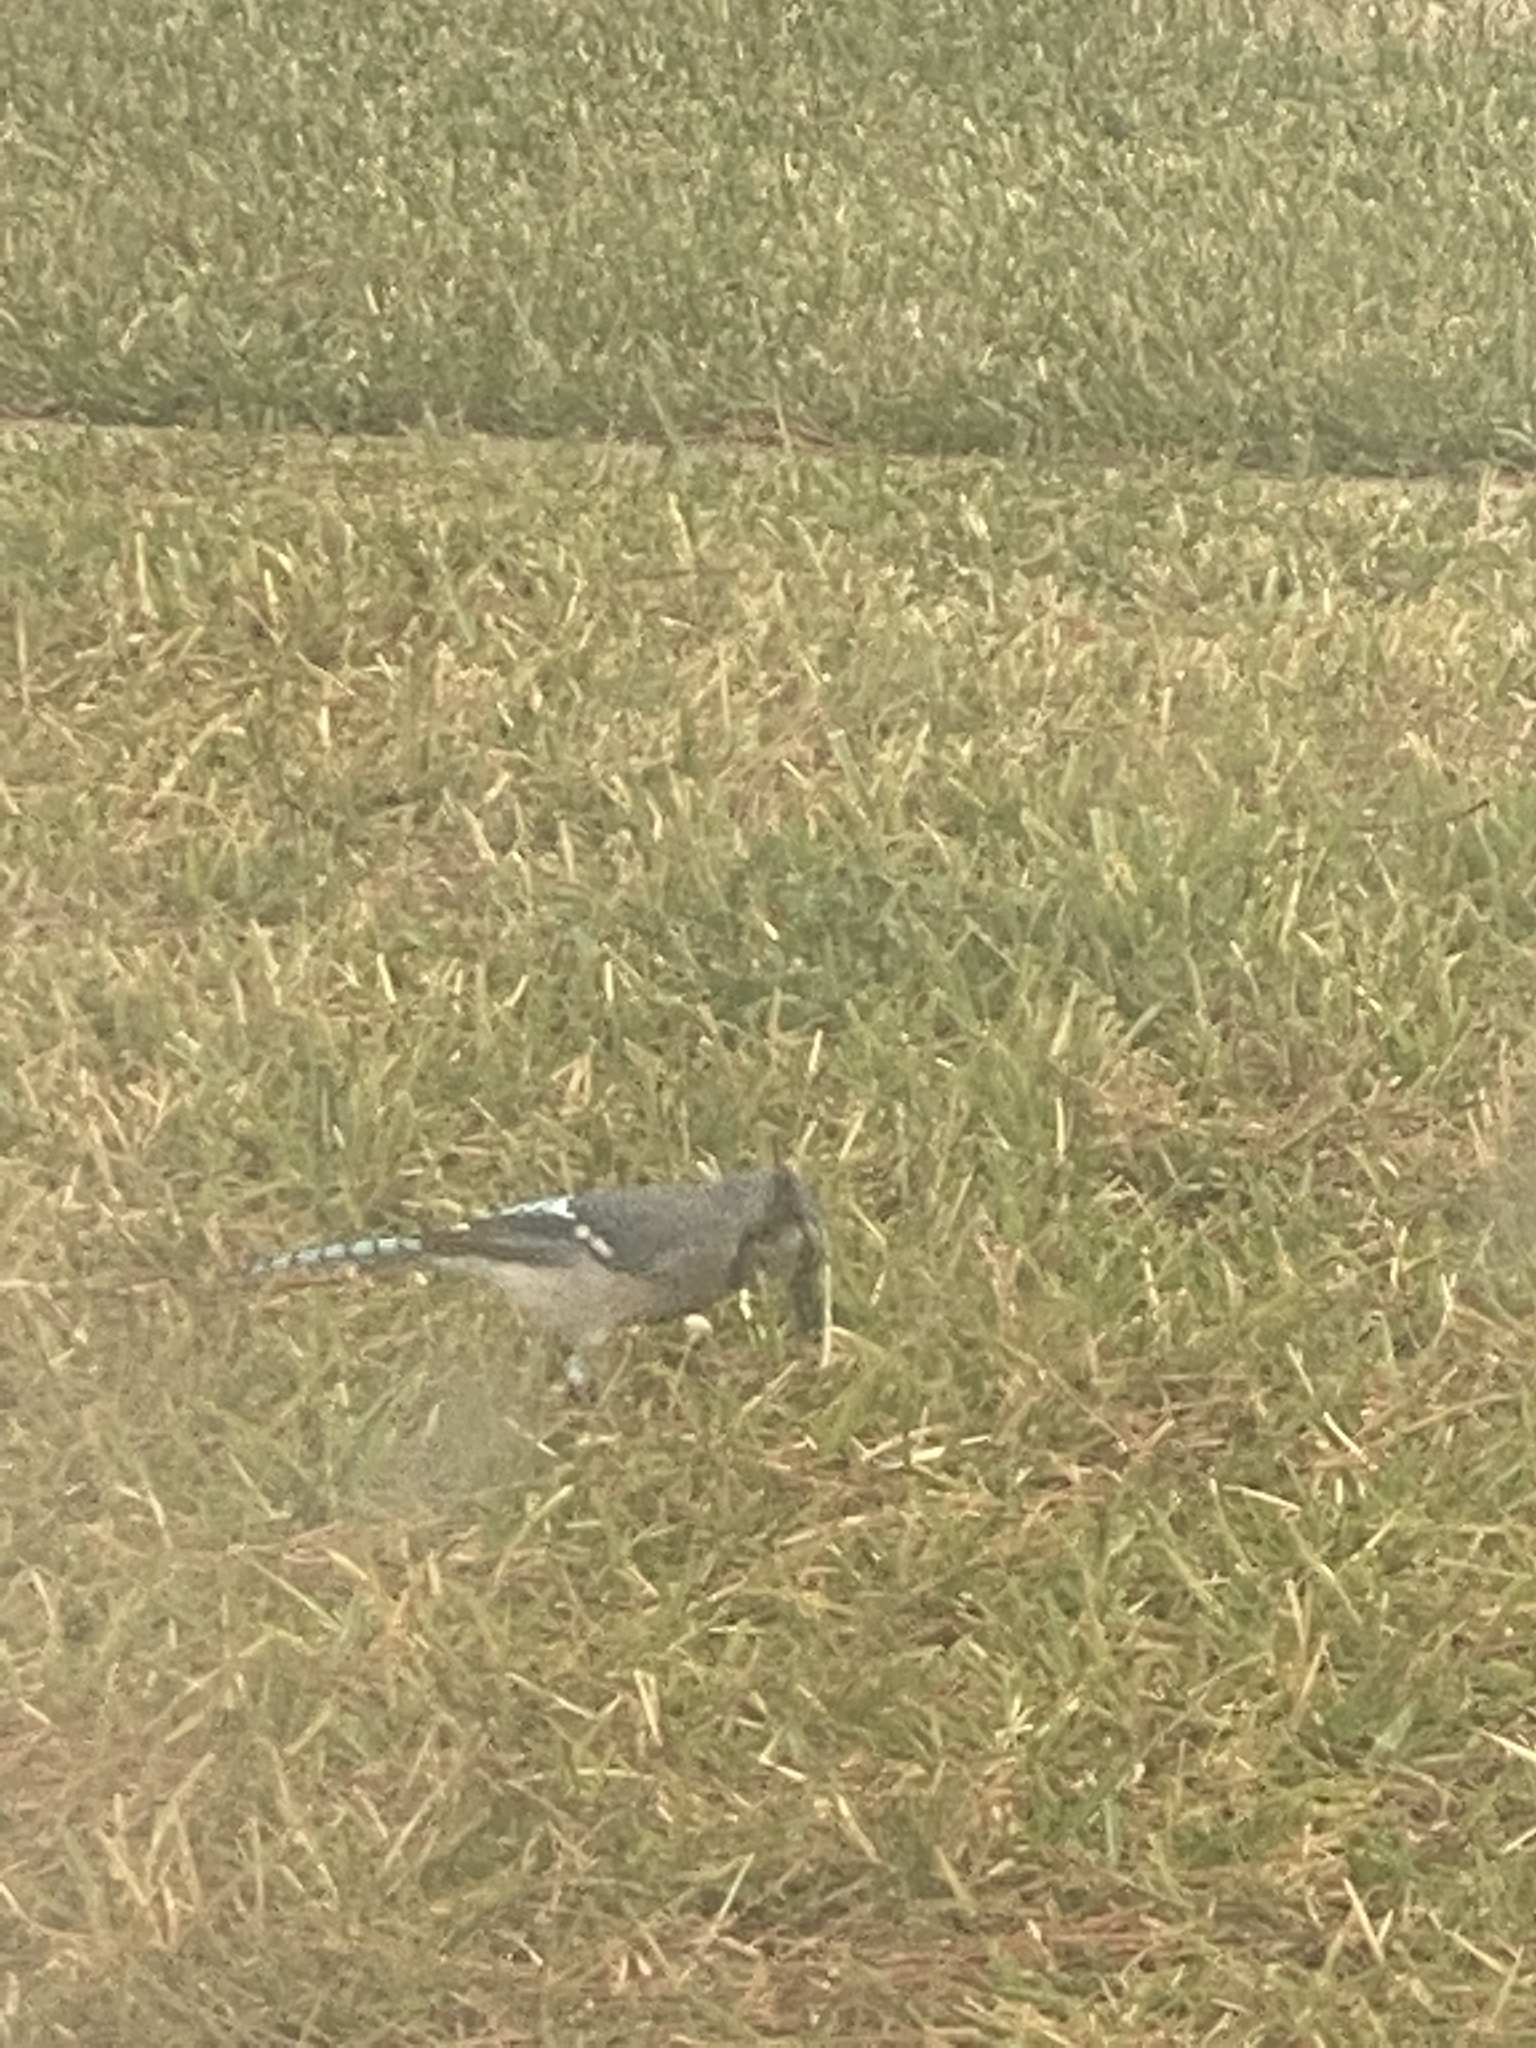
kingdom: Animalia
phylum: Chordata
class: Aves
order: Passeriformes
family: Corvidae
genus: Cyanocitta
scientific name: Cyanocitta cristata
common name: Blue jay
